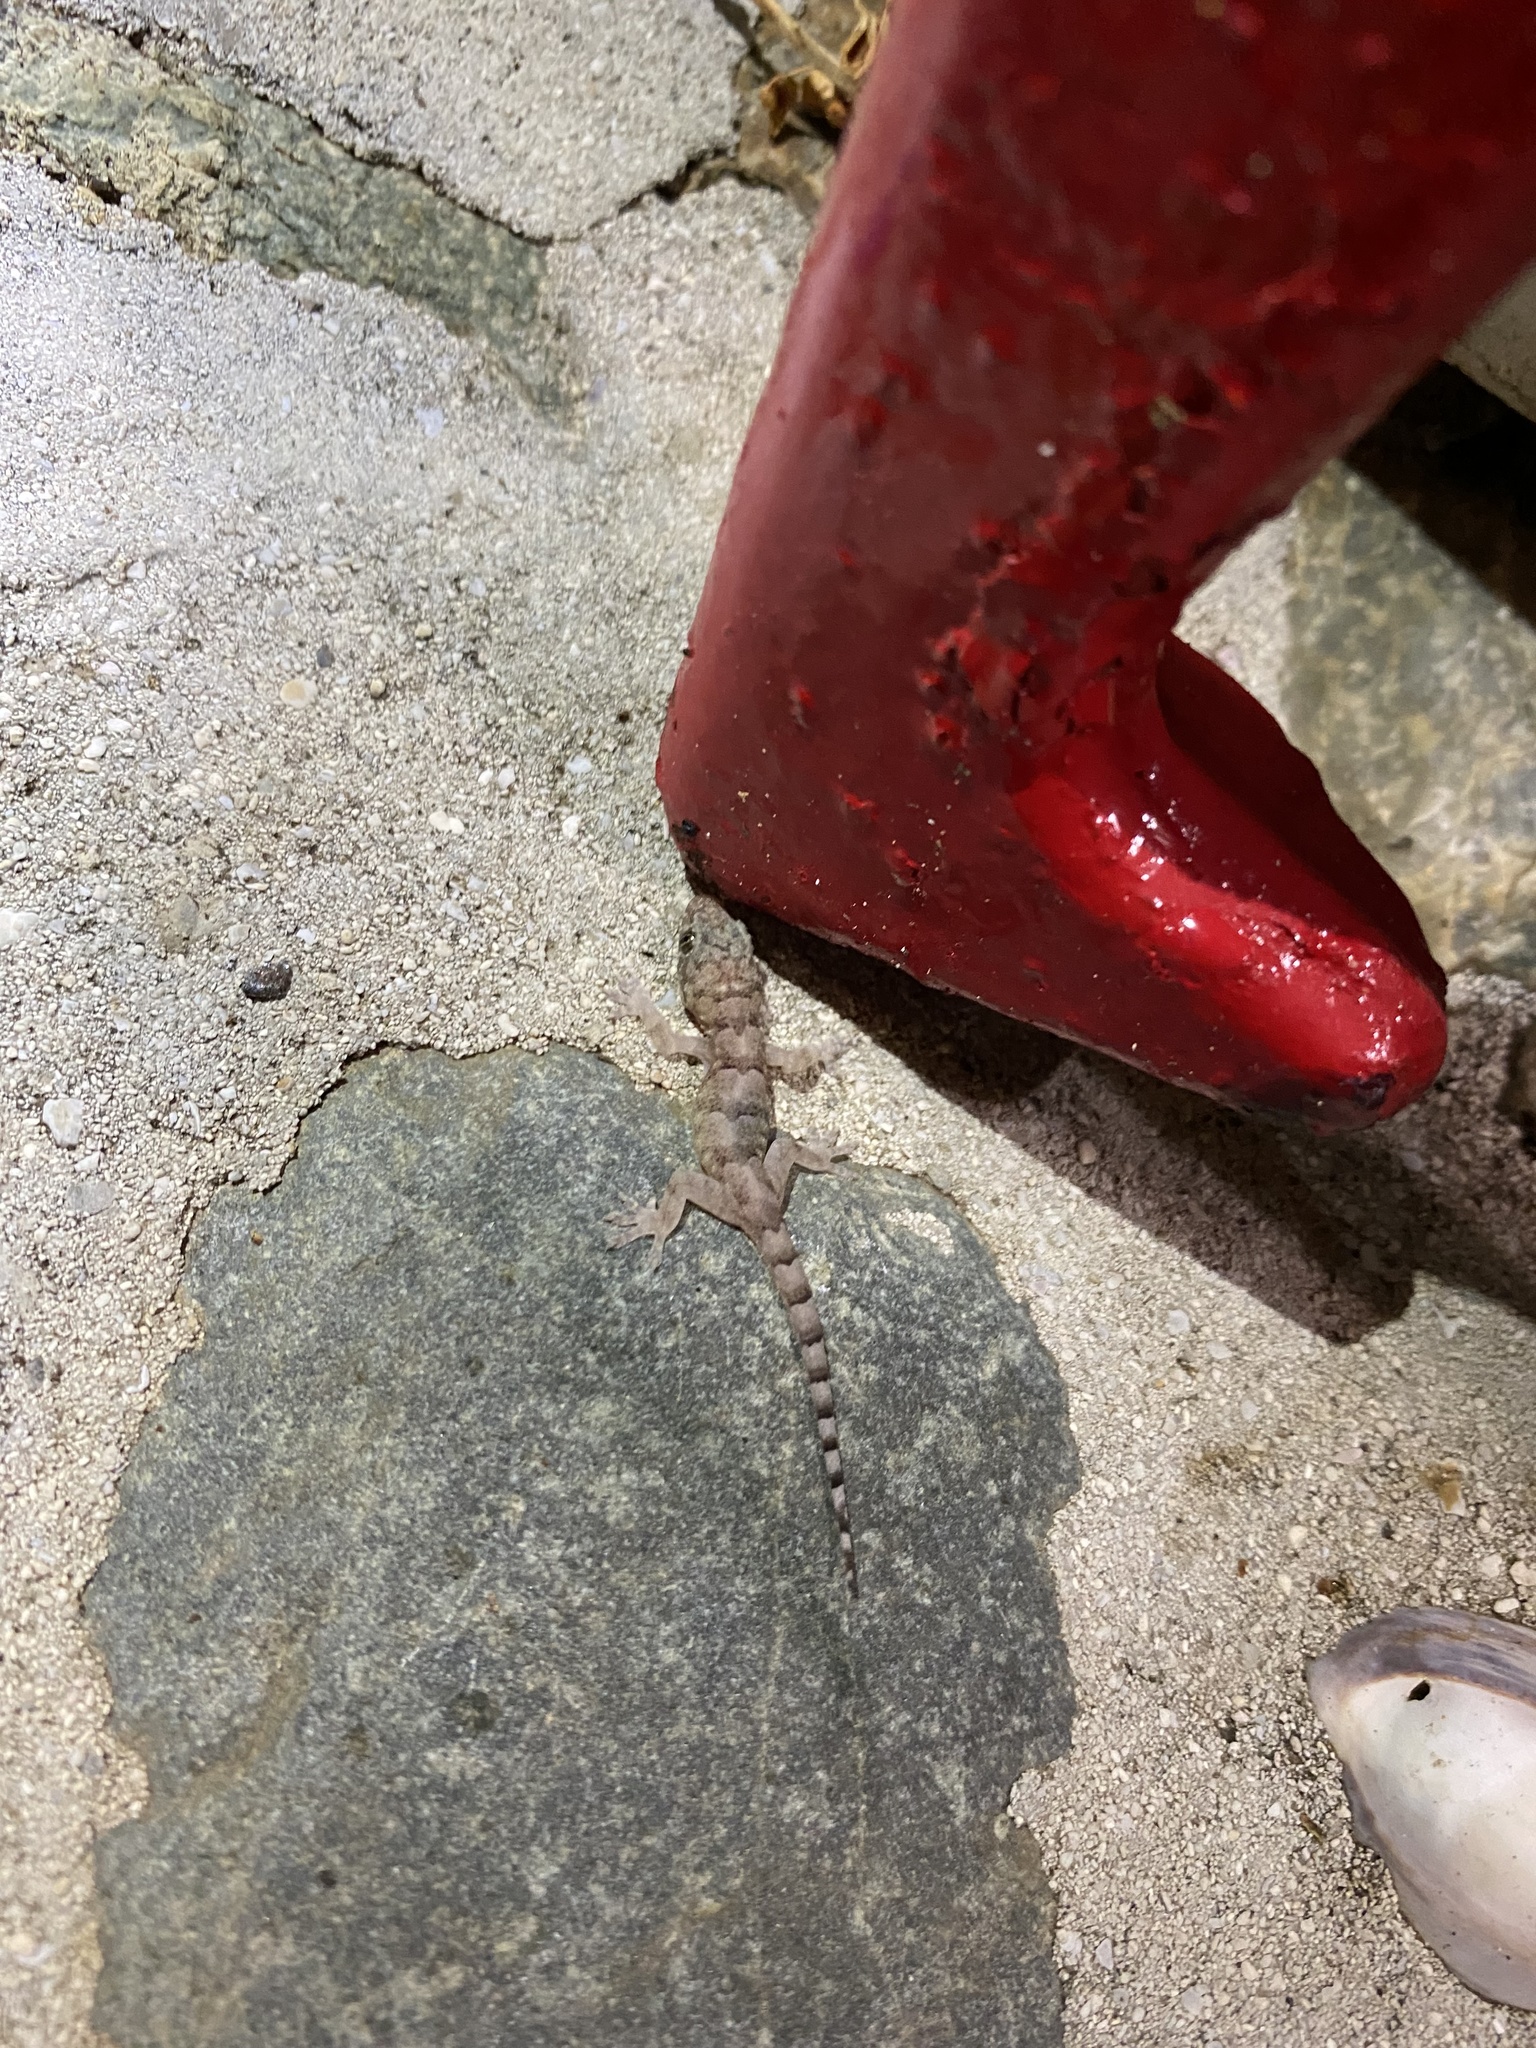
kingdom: Animalia
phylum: Chordata
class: Squamata
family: Gekkonidae
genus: Hemidactylus
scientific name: Hemidactylus mabouia
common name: House gecko
